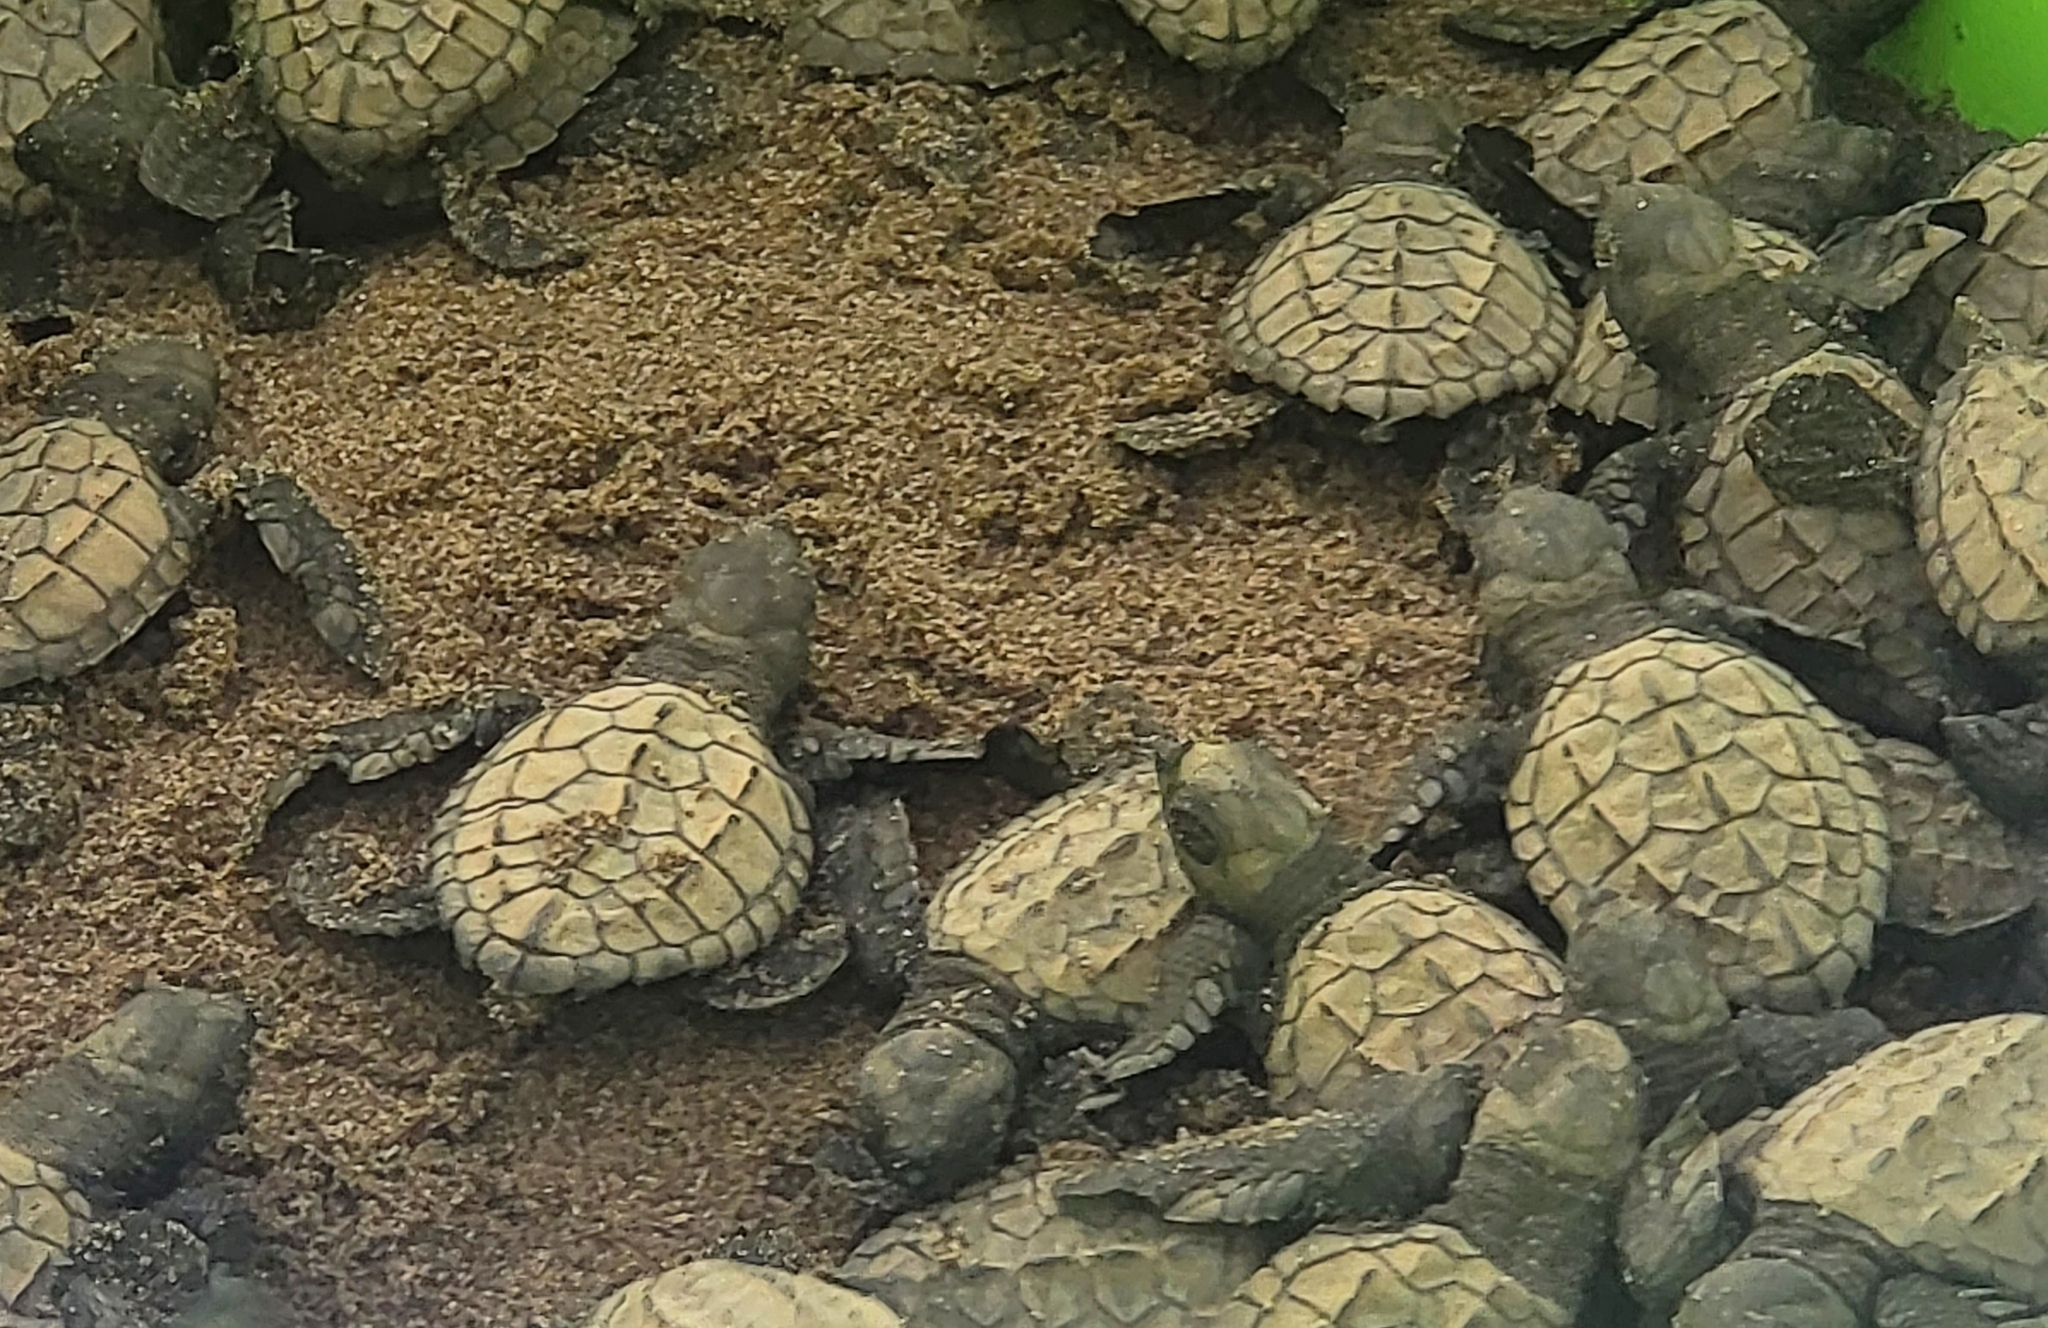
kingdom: Animalia
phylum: Chordata
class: Testudines
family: Cheloniidae
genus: Lepidochelys
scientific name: Lepidochelys olivacea
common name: Olive ridley
